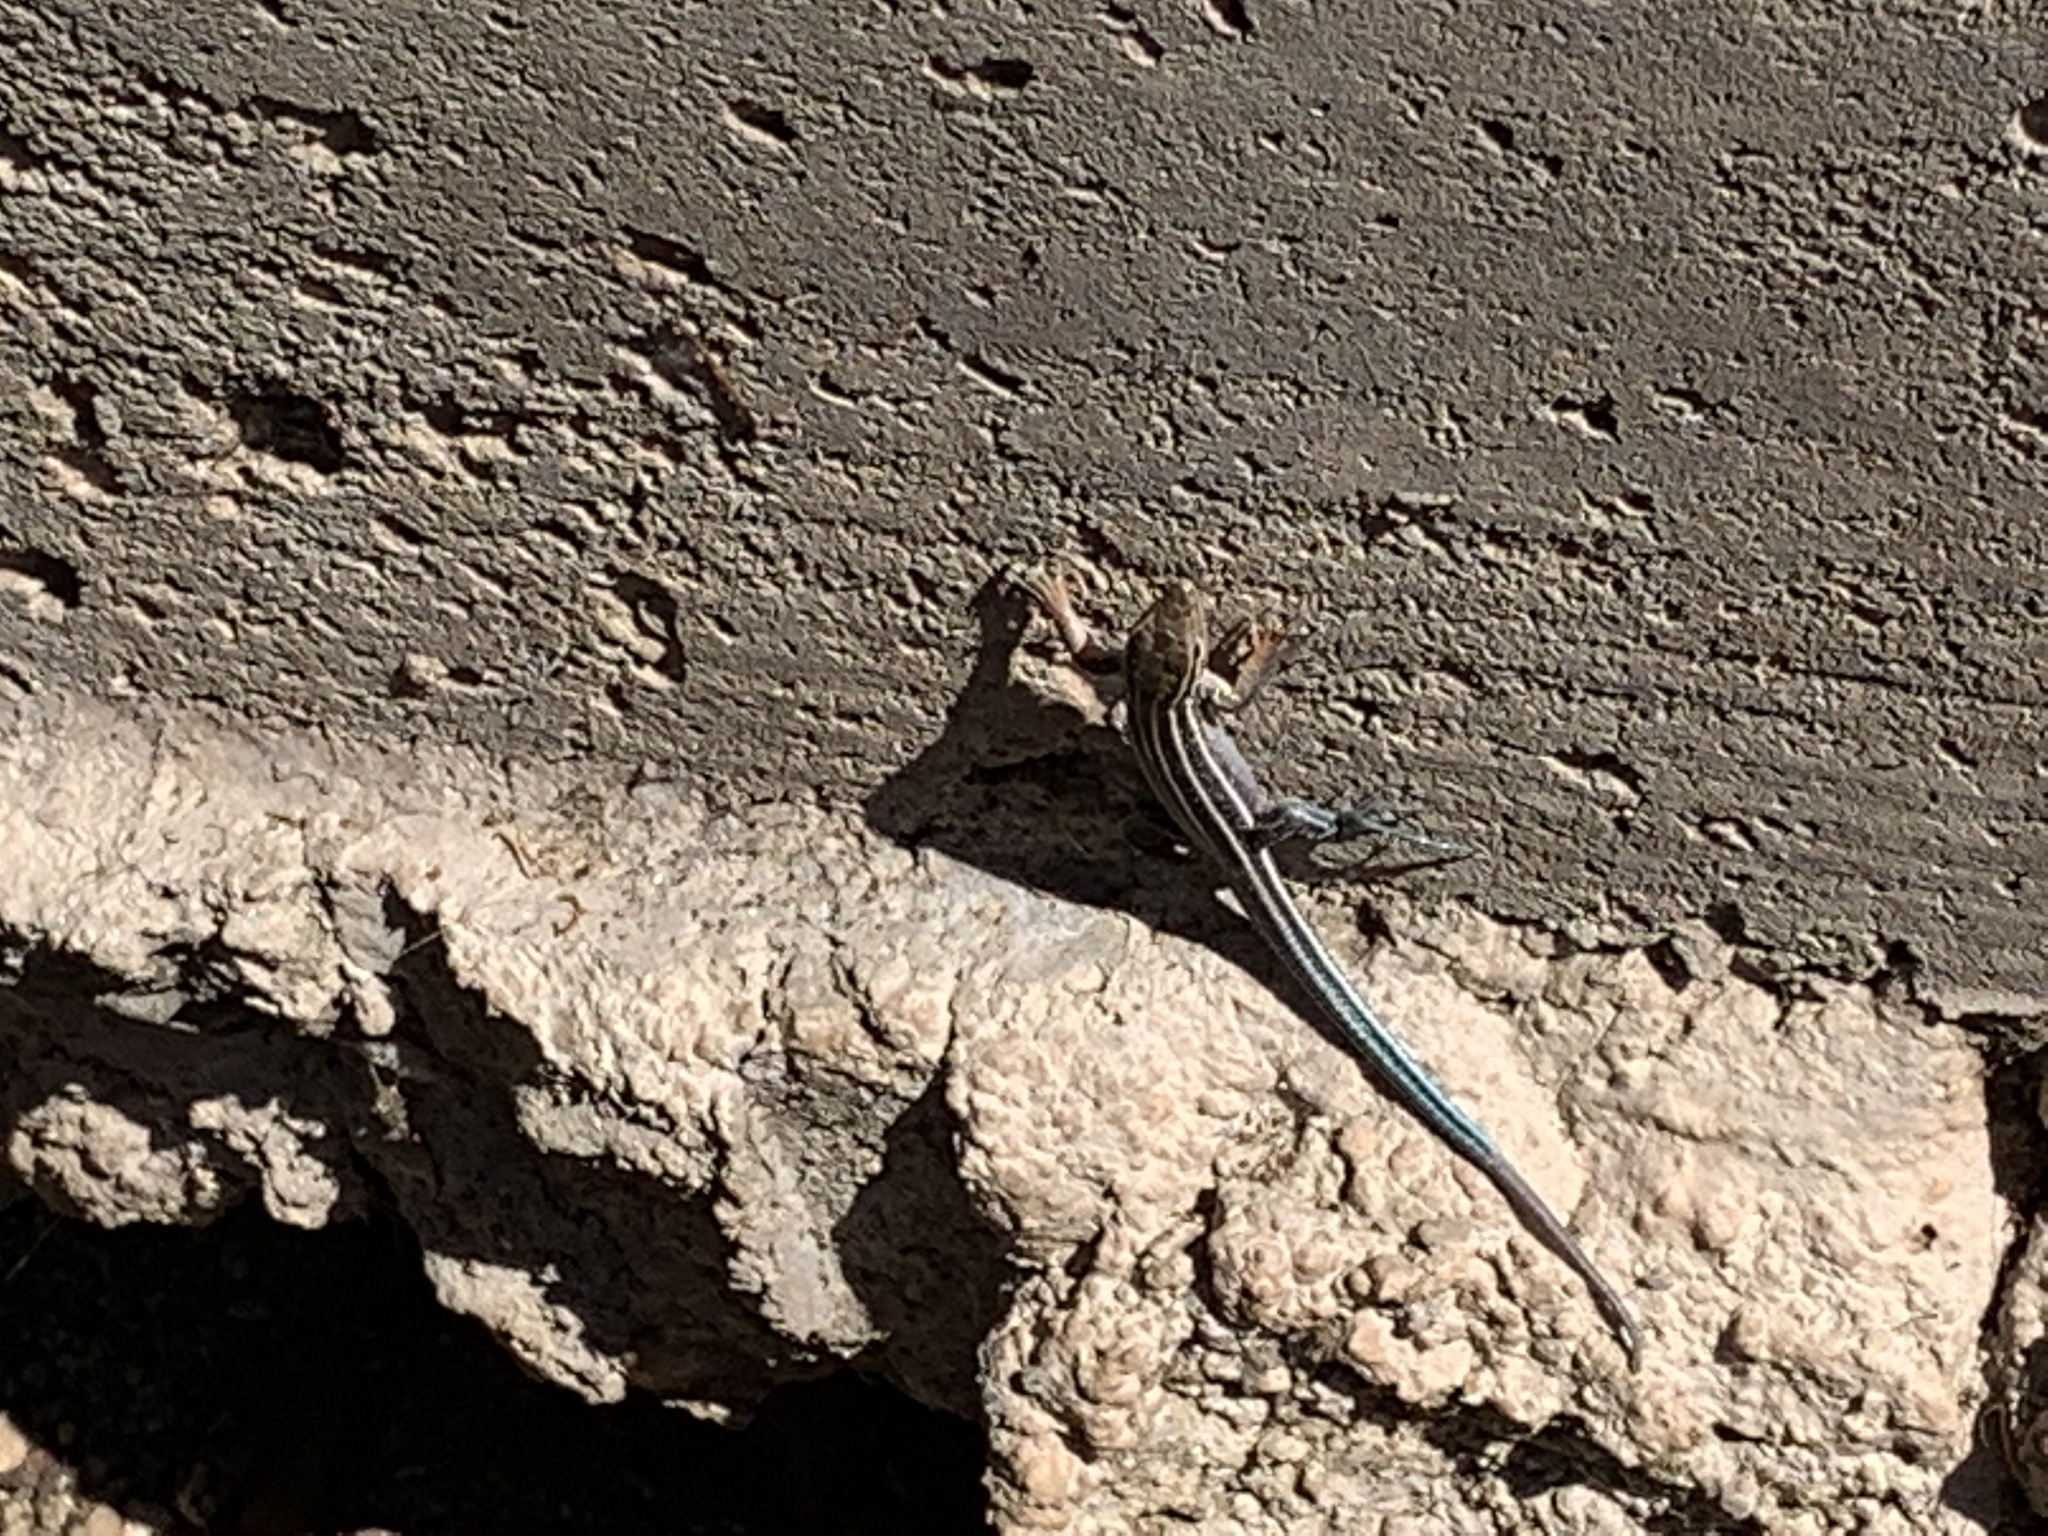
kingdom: Animalia
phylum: Chordata
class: Squamata
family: Teiidae
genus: Aspidoscelis
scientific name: Aspidoscelis hyperythrus
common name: Orange-throated race-runner
